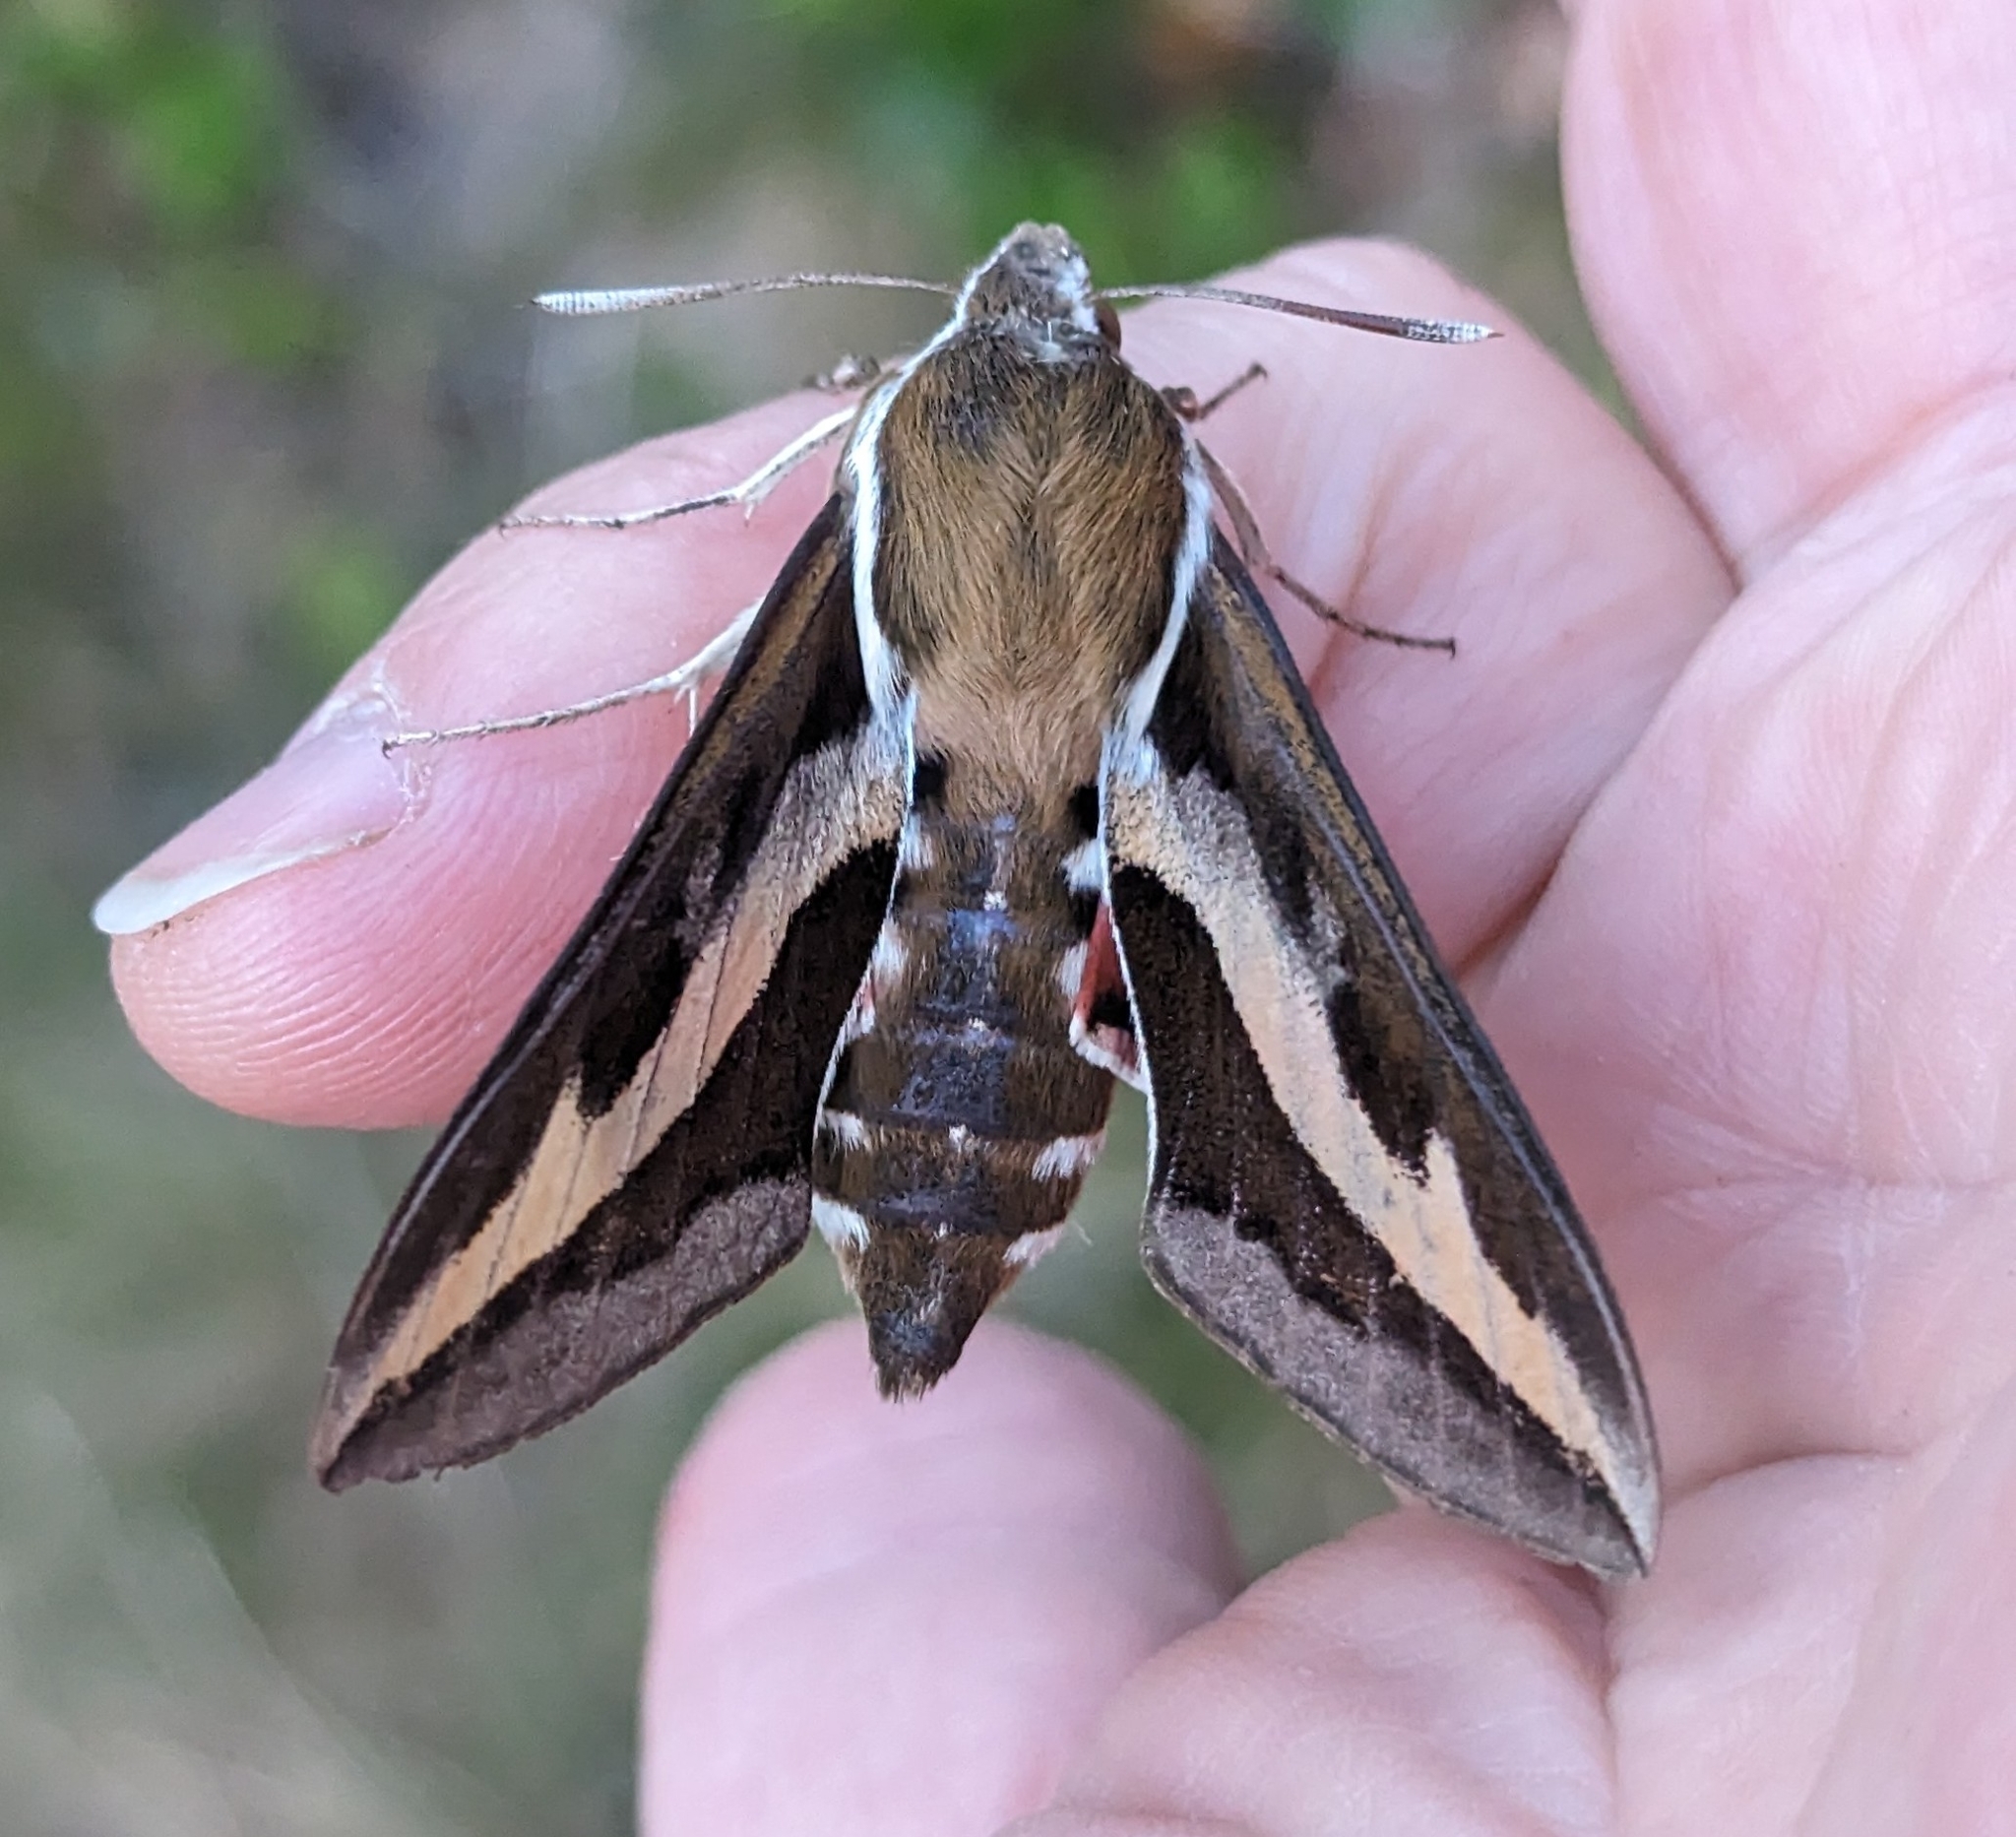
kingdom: Animalia
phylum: Arthropoda
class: Insecta
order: Lepidoptera
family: Sphingidae
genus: Hyles
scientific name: Hyles gallii
